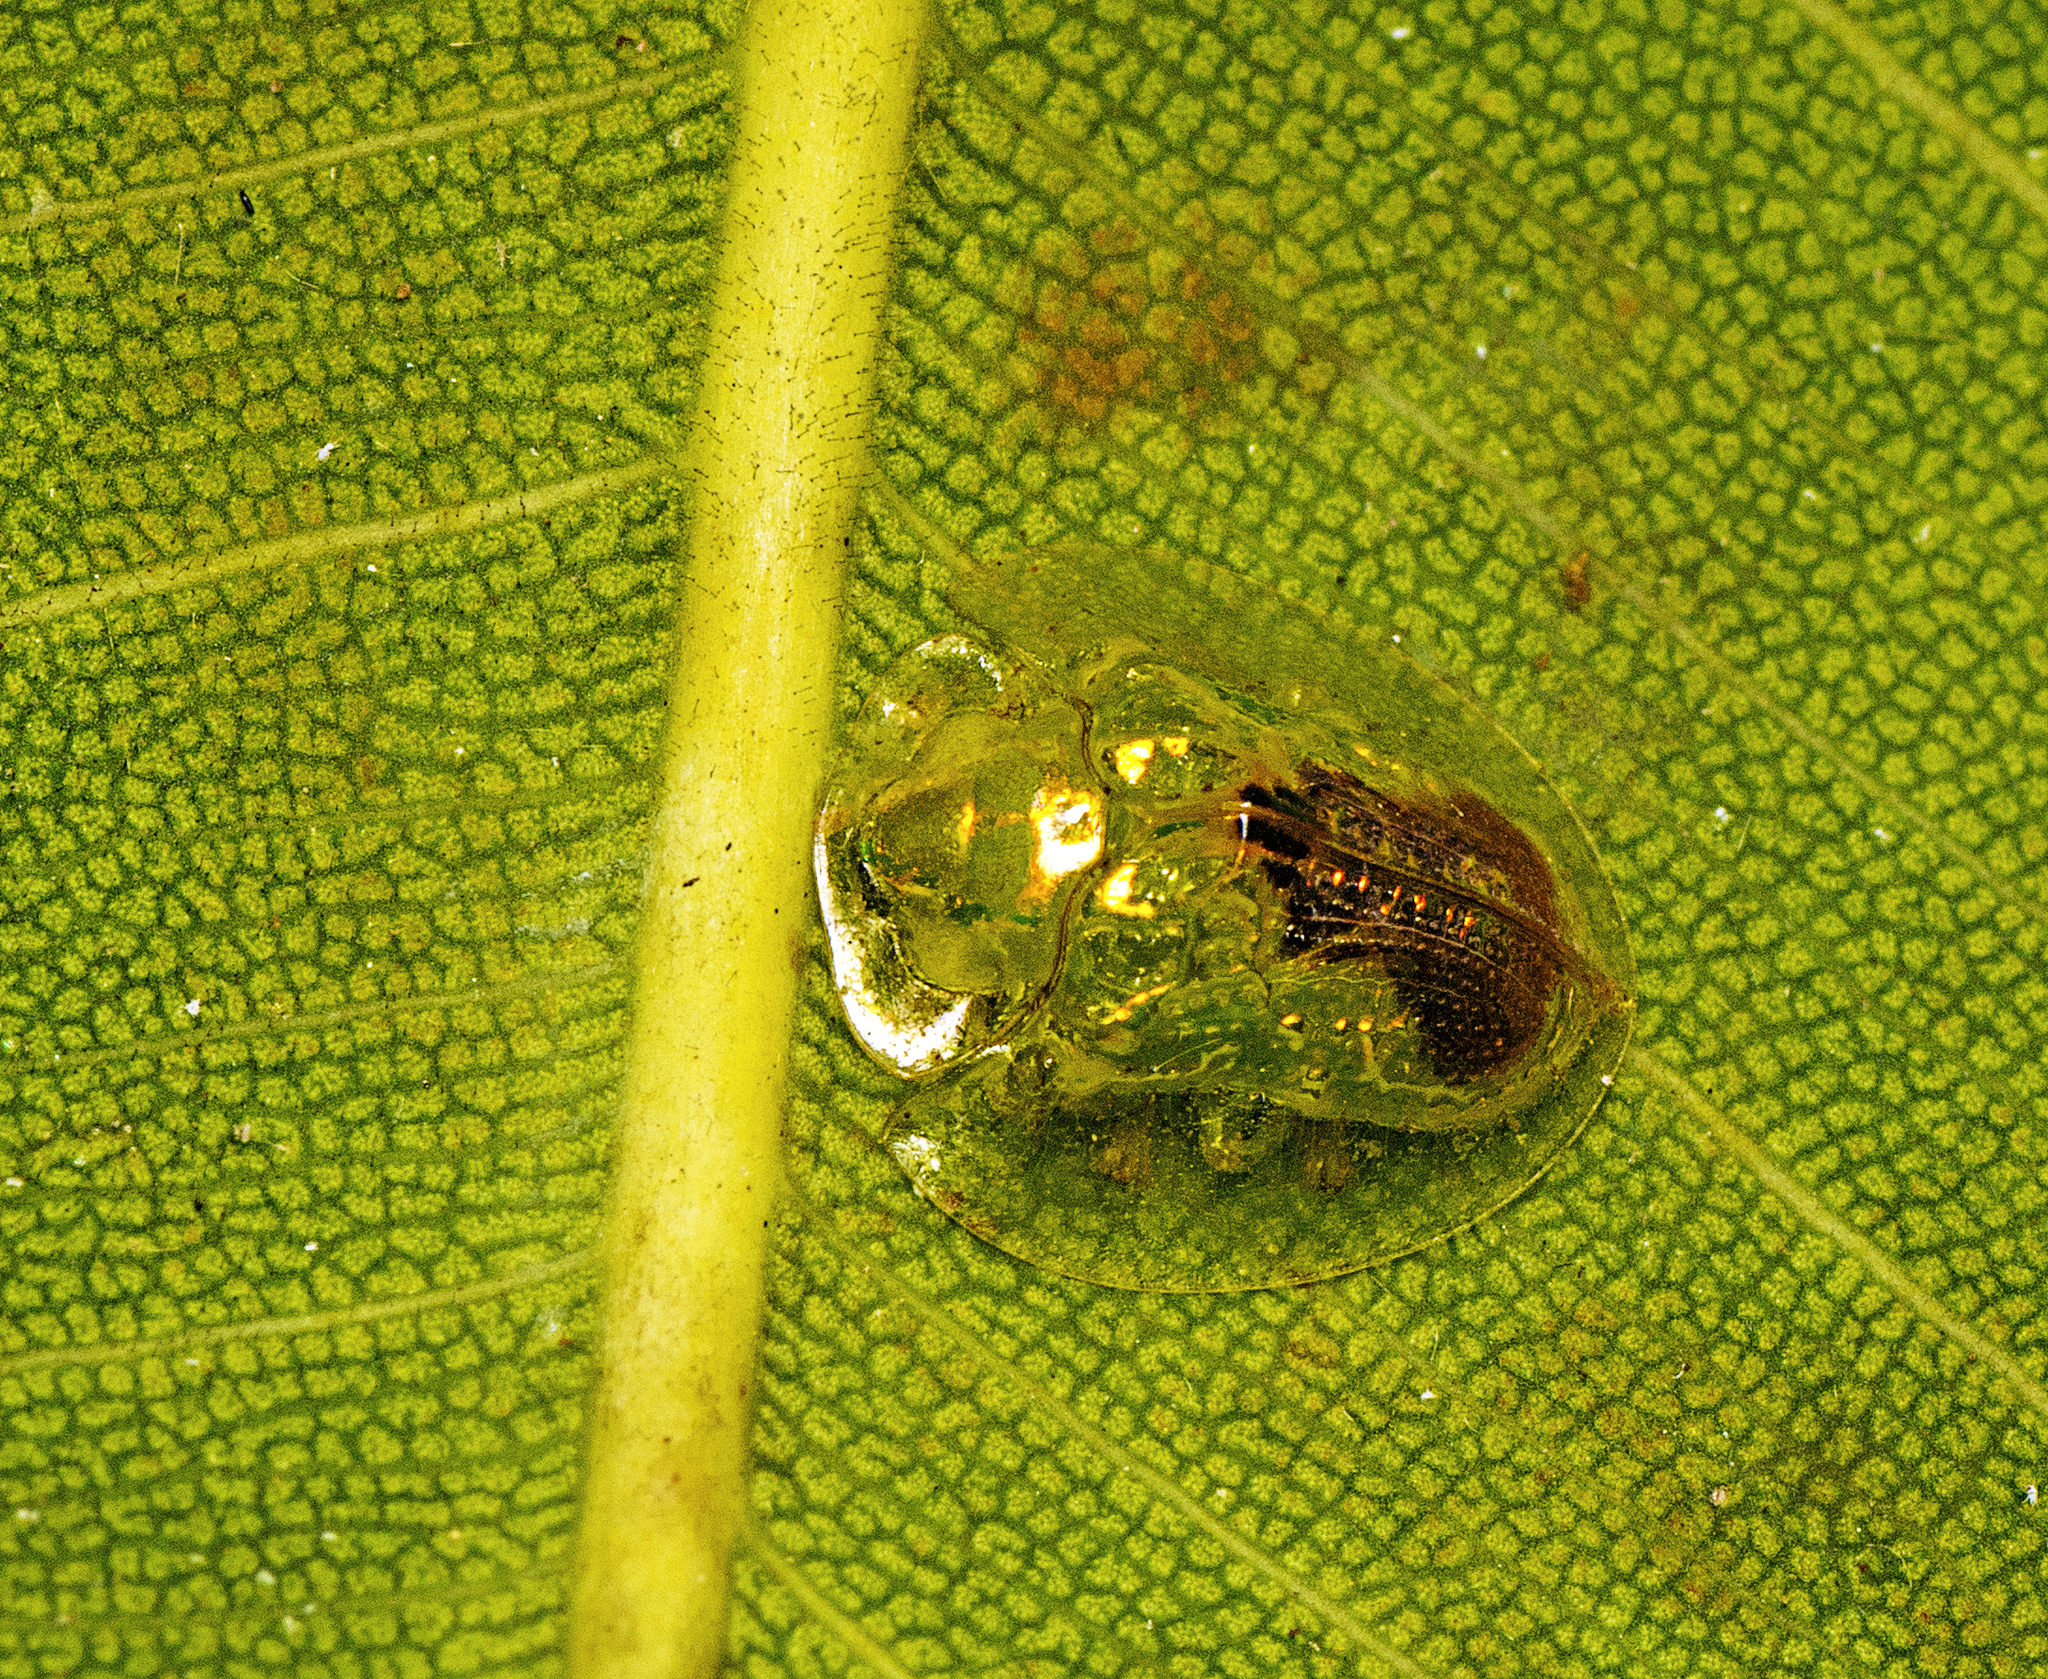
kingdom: Animalia
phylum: Arthropoda
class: Insecta
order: Coleoptera
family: Chrysomelidae
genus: Austropsecadia
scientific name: Austropsecadia chlorina
